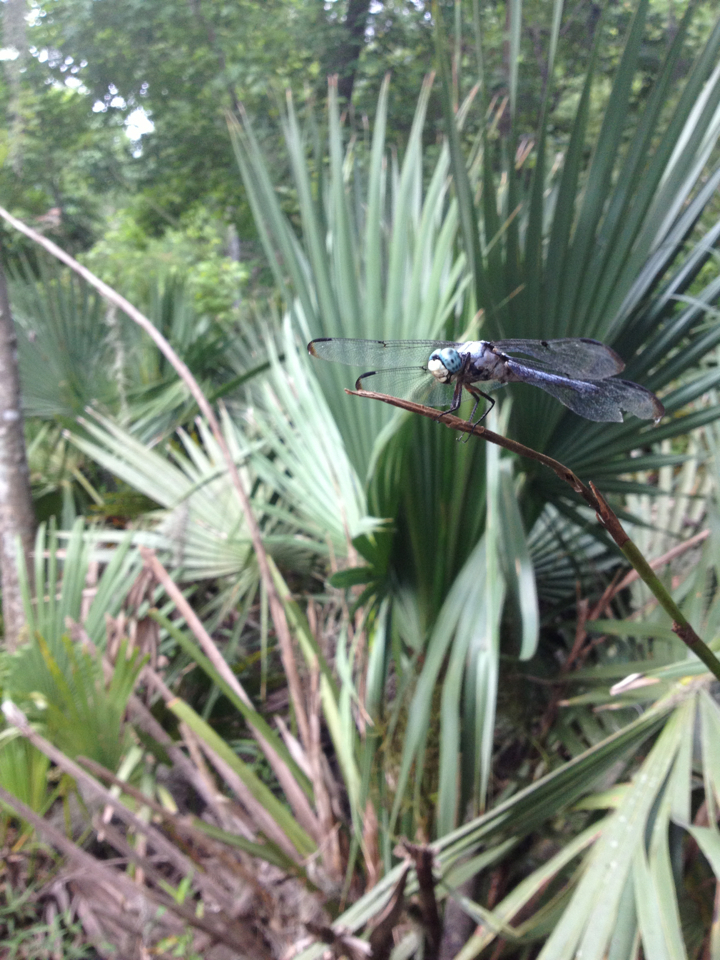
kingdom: Animalia
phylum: Arthropoda
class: Insecta
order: Odonata
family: Libellulidae
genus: Libellula
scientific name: Libellula vibrans
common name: Great blue skimmer
